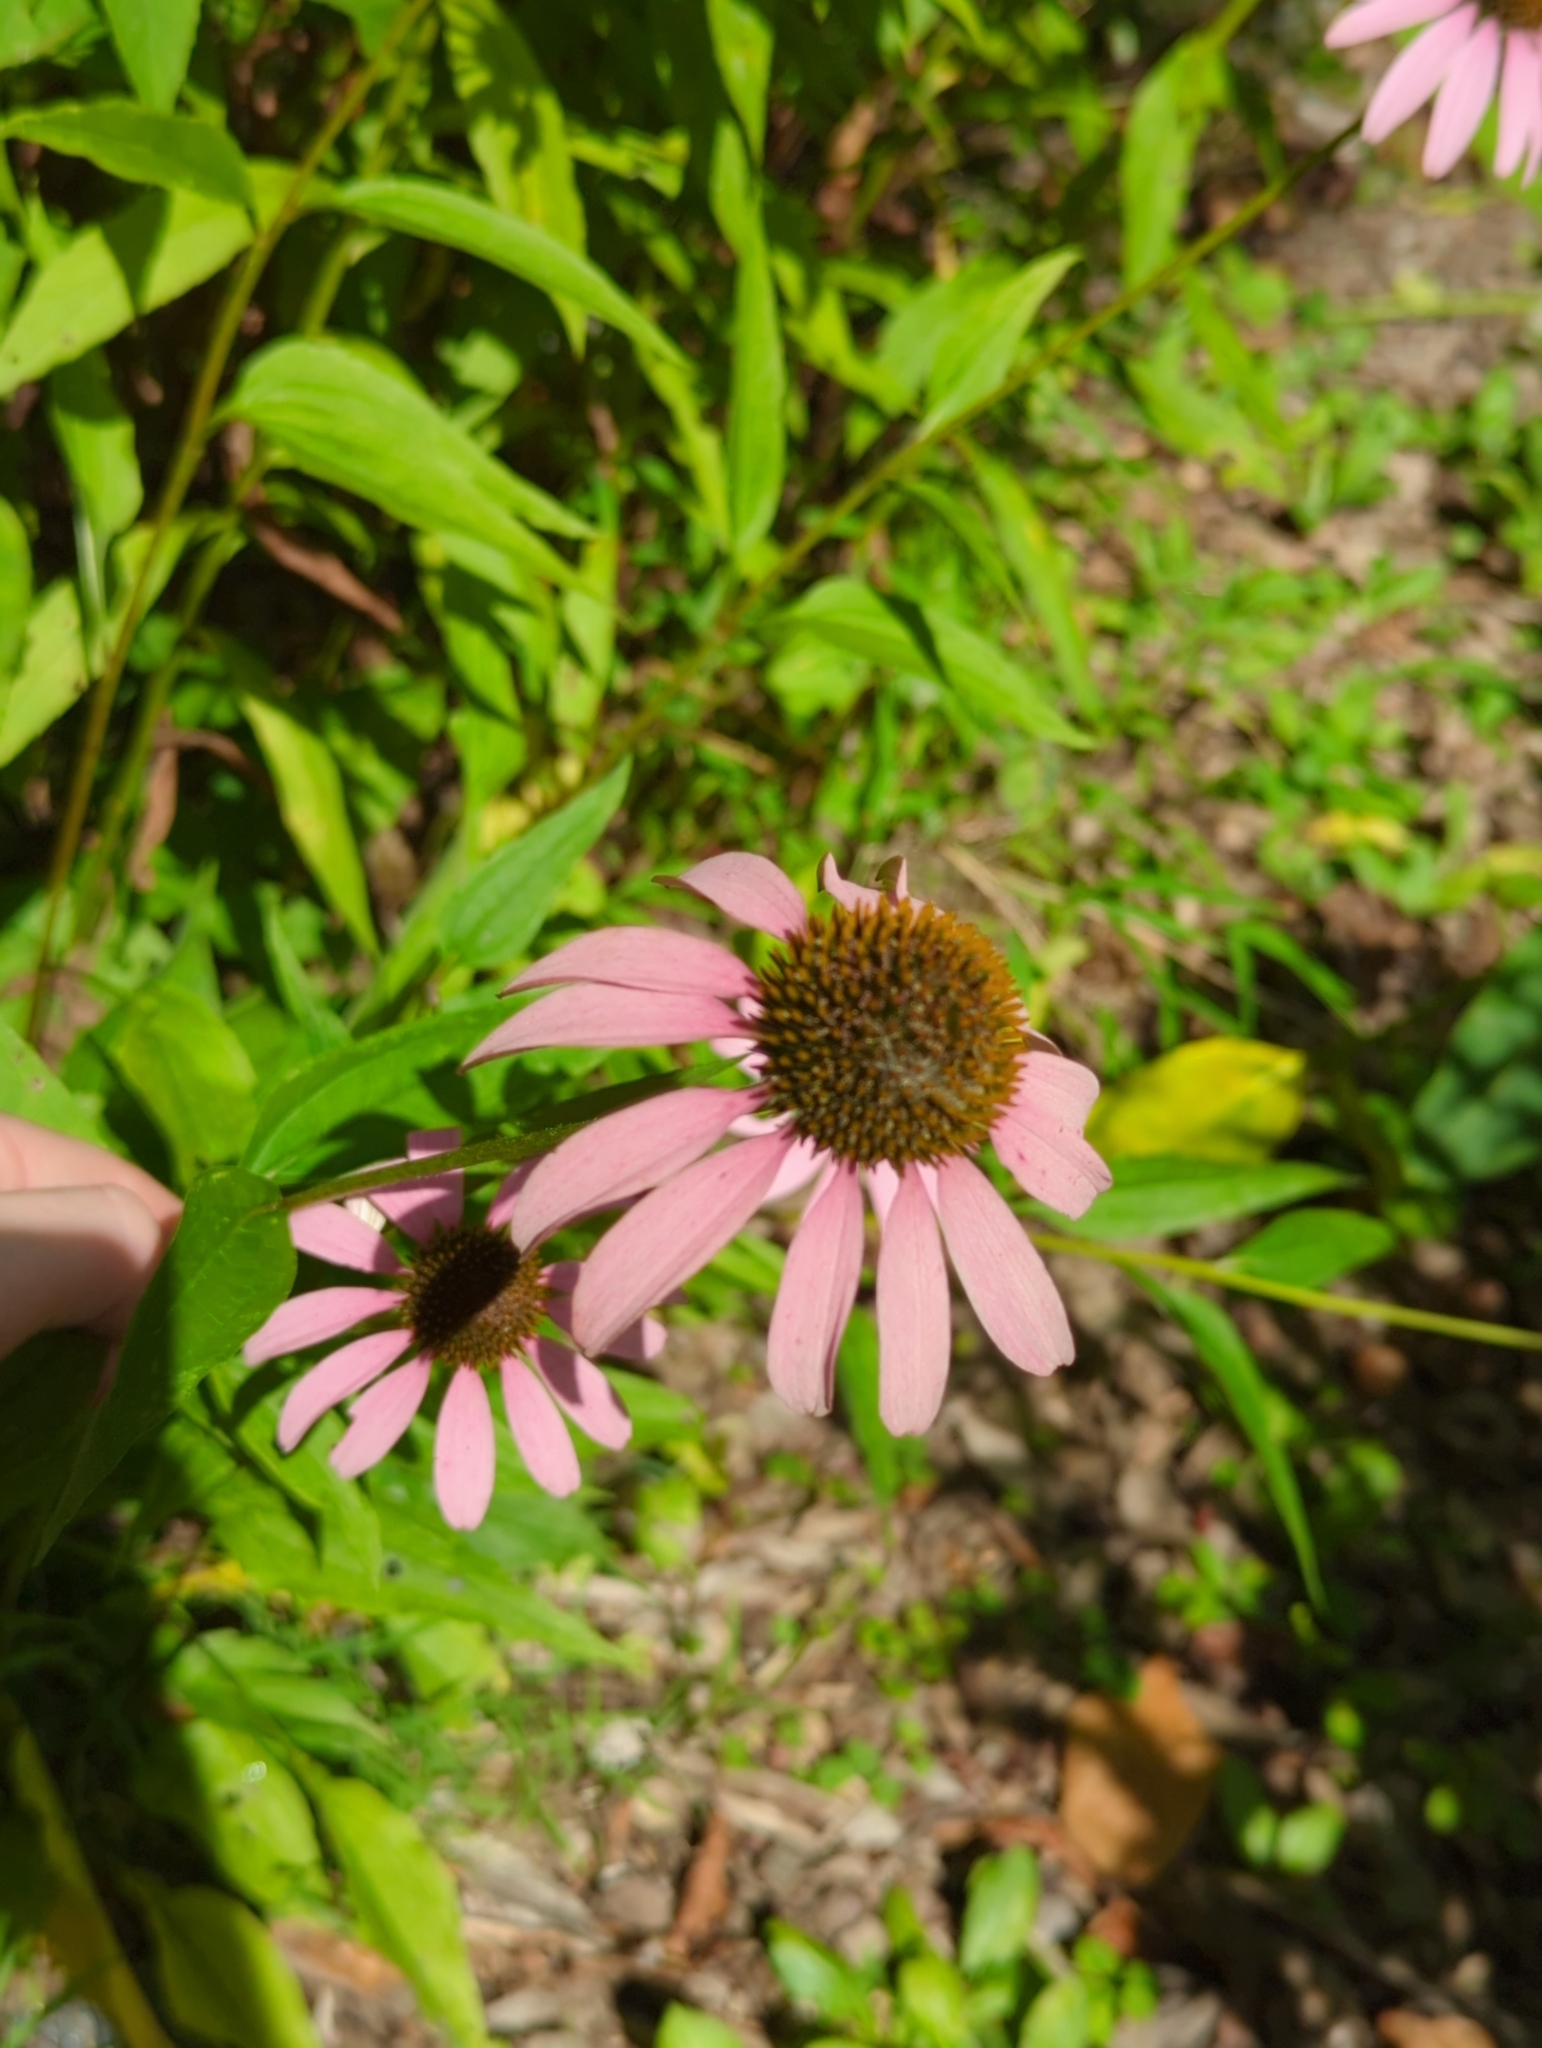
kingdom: Plantae
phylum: Tracheophyta
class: Magnoliopsida
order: Asterales
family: Asteraceae
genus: Echinacea
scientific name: Echinacea purpurea
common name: Broad-leaved purple coneflower
